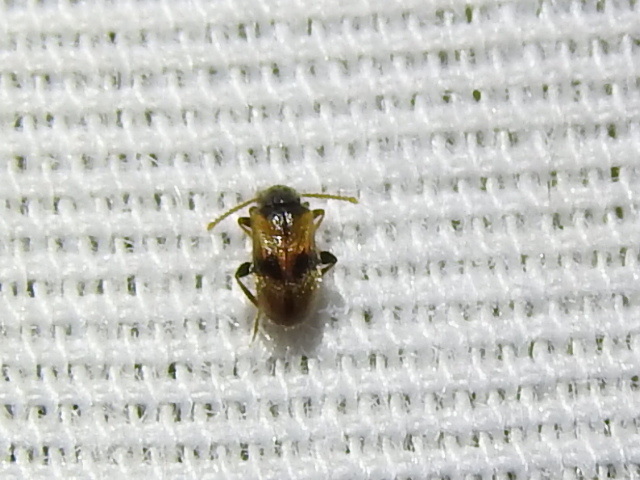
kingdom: Animalia
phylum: Arthropoda
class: Insecta
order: Coleoptera
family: Aderidae
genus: Zonantes
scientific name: Zonantes nubifer
